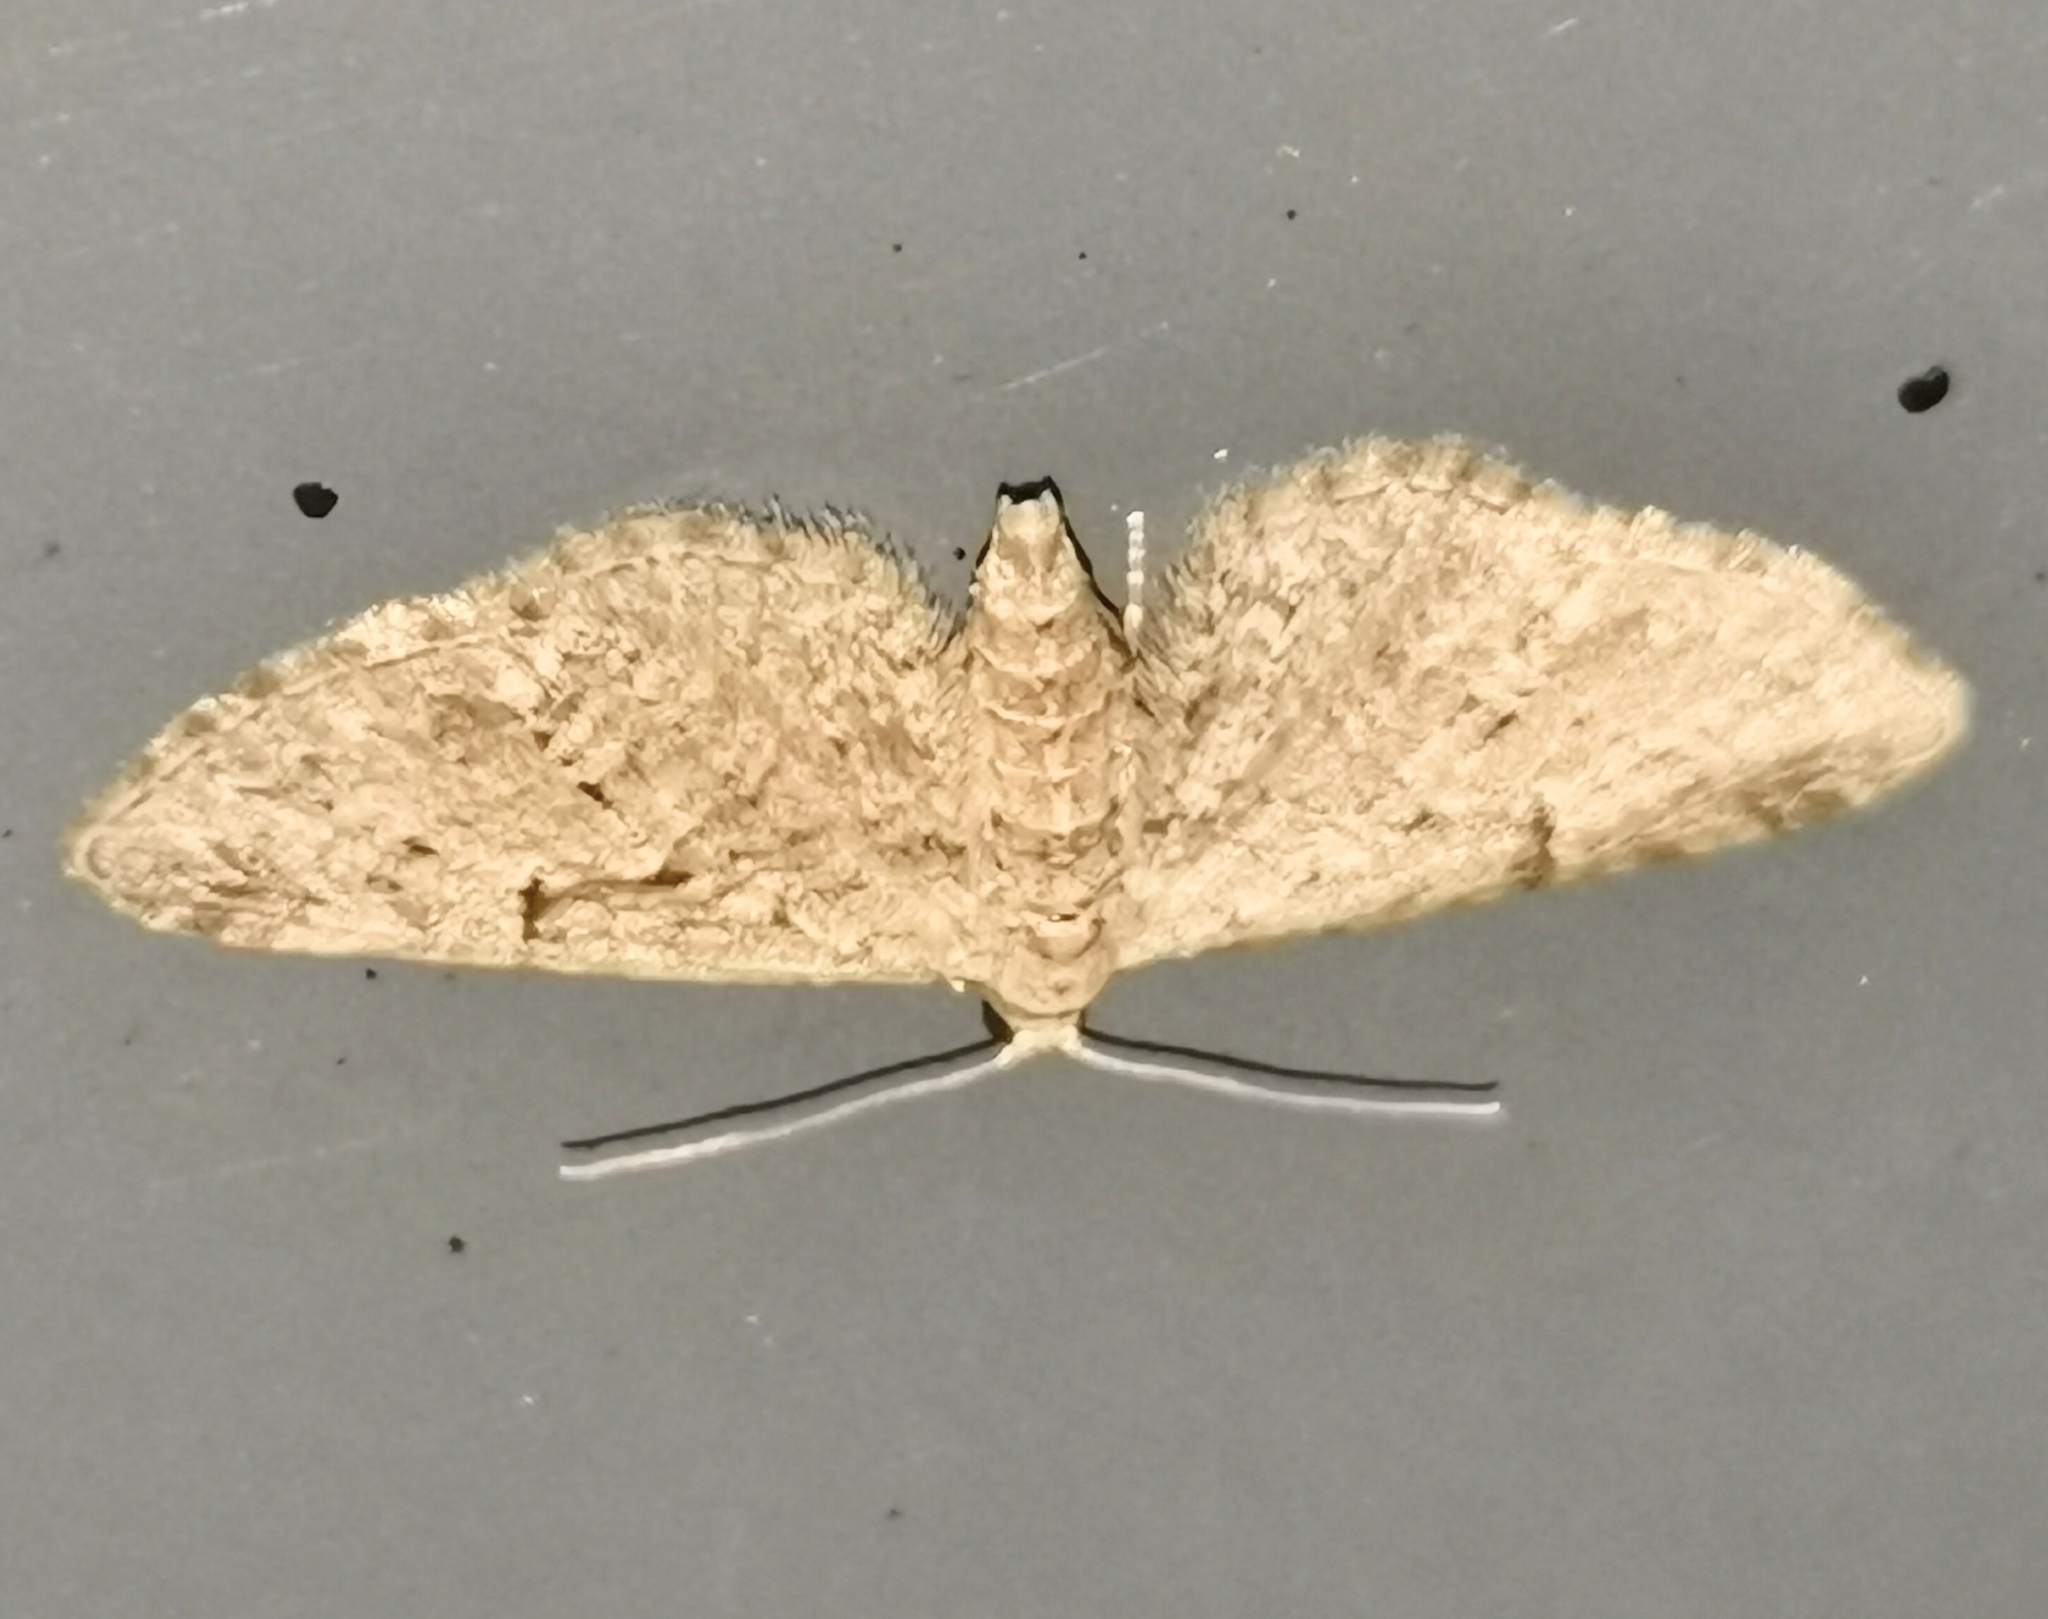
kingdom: Animalia
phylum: Arthropoda
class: Insecta
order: Lepidoptera
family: Geometridae
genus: Eupithecia
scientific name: Eupithecia pusillata
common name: Juniper pug
